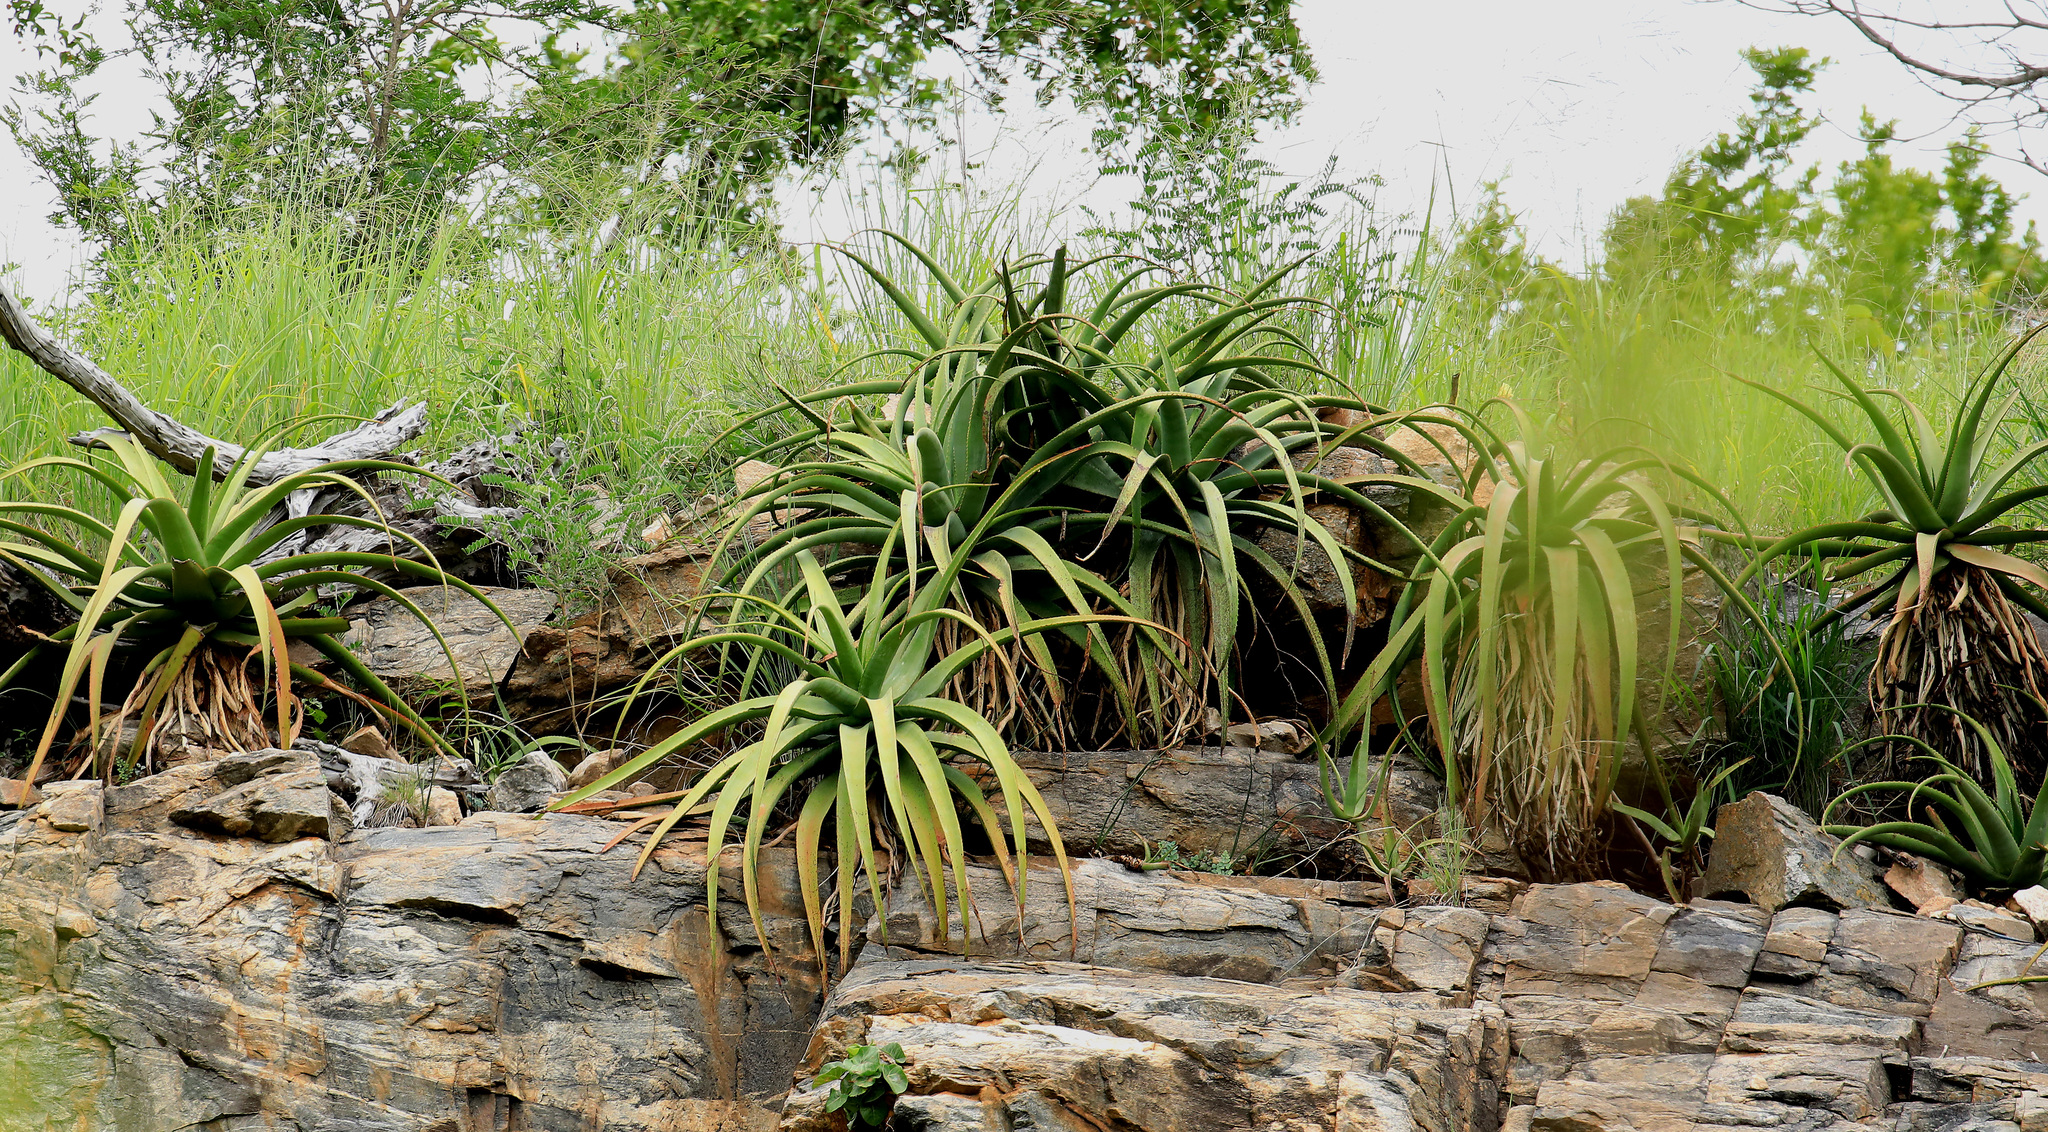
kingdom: Plantae
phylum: Tracheophyta
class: Liliopsida
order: Asparagales
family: Asphodelaceae
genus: Aloe
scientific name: Aloe spicata
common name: Gazaland aloe
